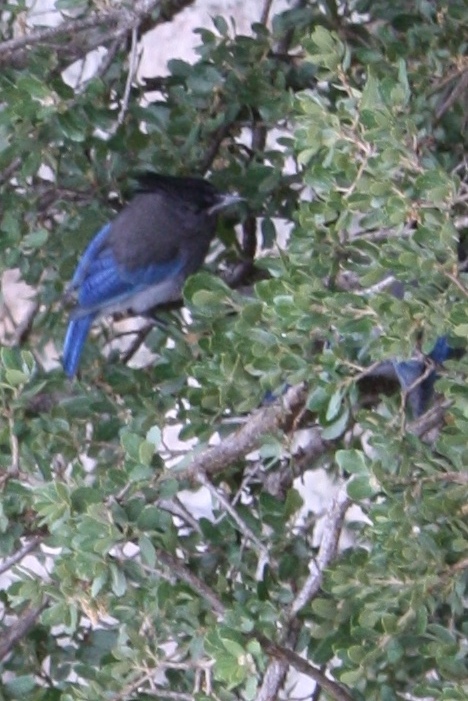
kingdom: Animalia
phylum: Chordata
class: Aves
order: Passeriformes
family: Corvidae
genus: Cyanocitta
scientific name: Cyanocitta stelleri
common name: Steller's jay
